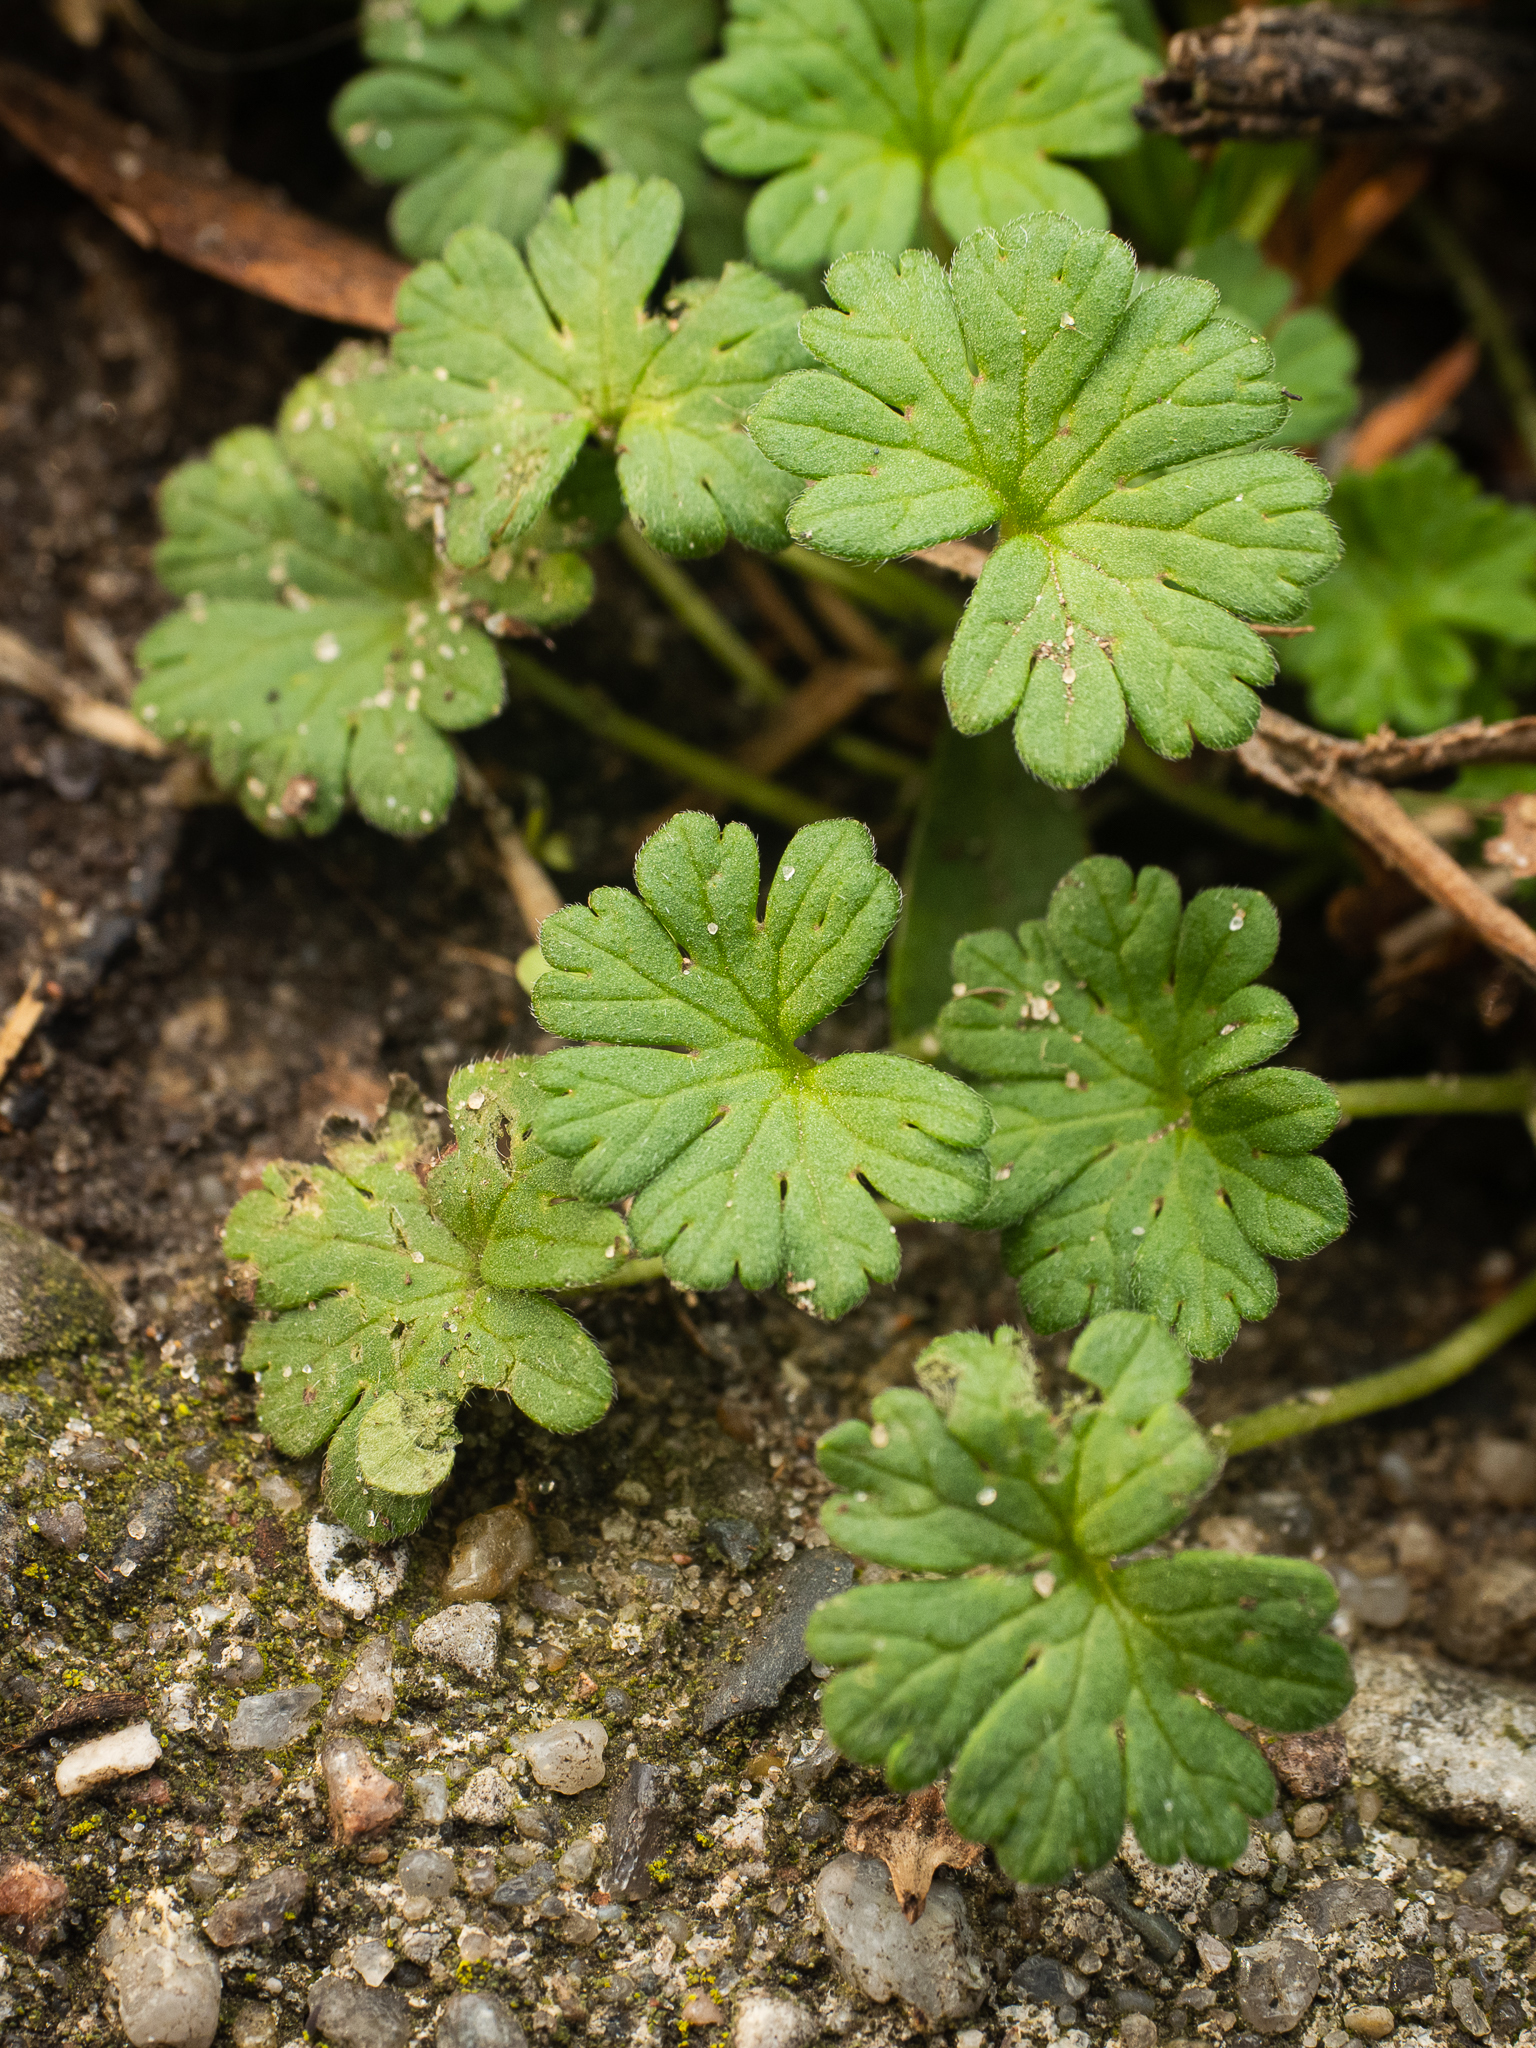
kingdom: Plantae
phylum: Tracheophyta
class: Magnoliopsida
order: Geraniales
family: Geraniaceae
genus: Geranium
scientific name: Geranium molle
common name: Dove's-foot crane's-bill
